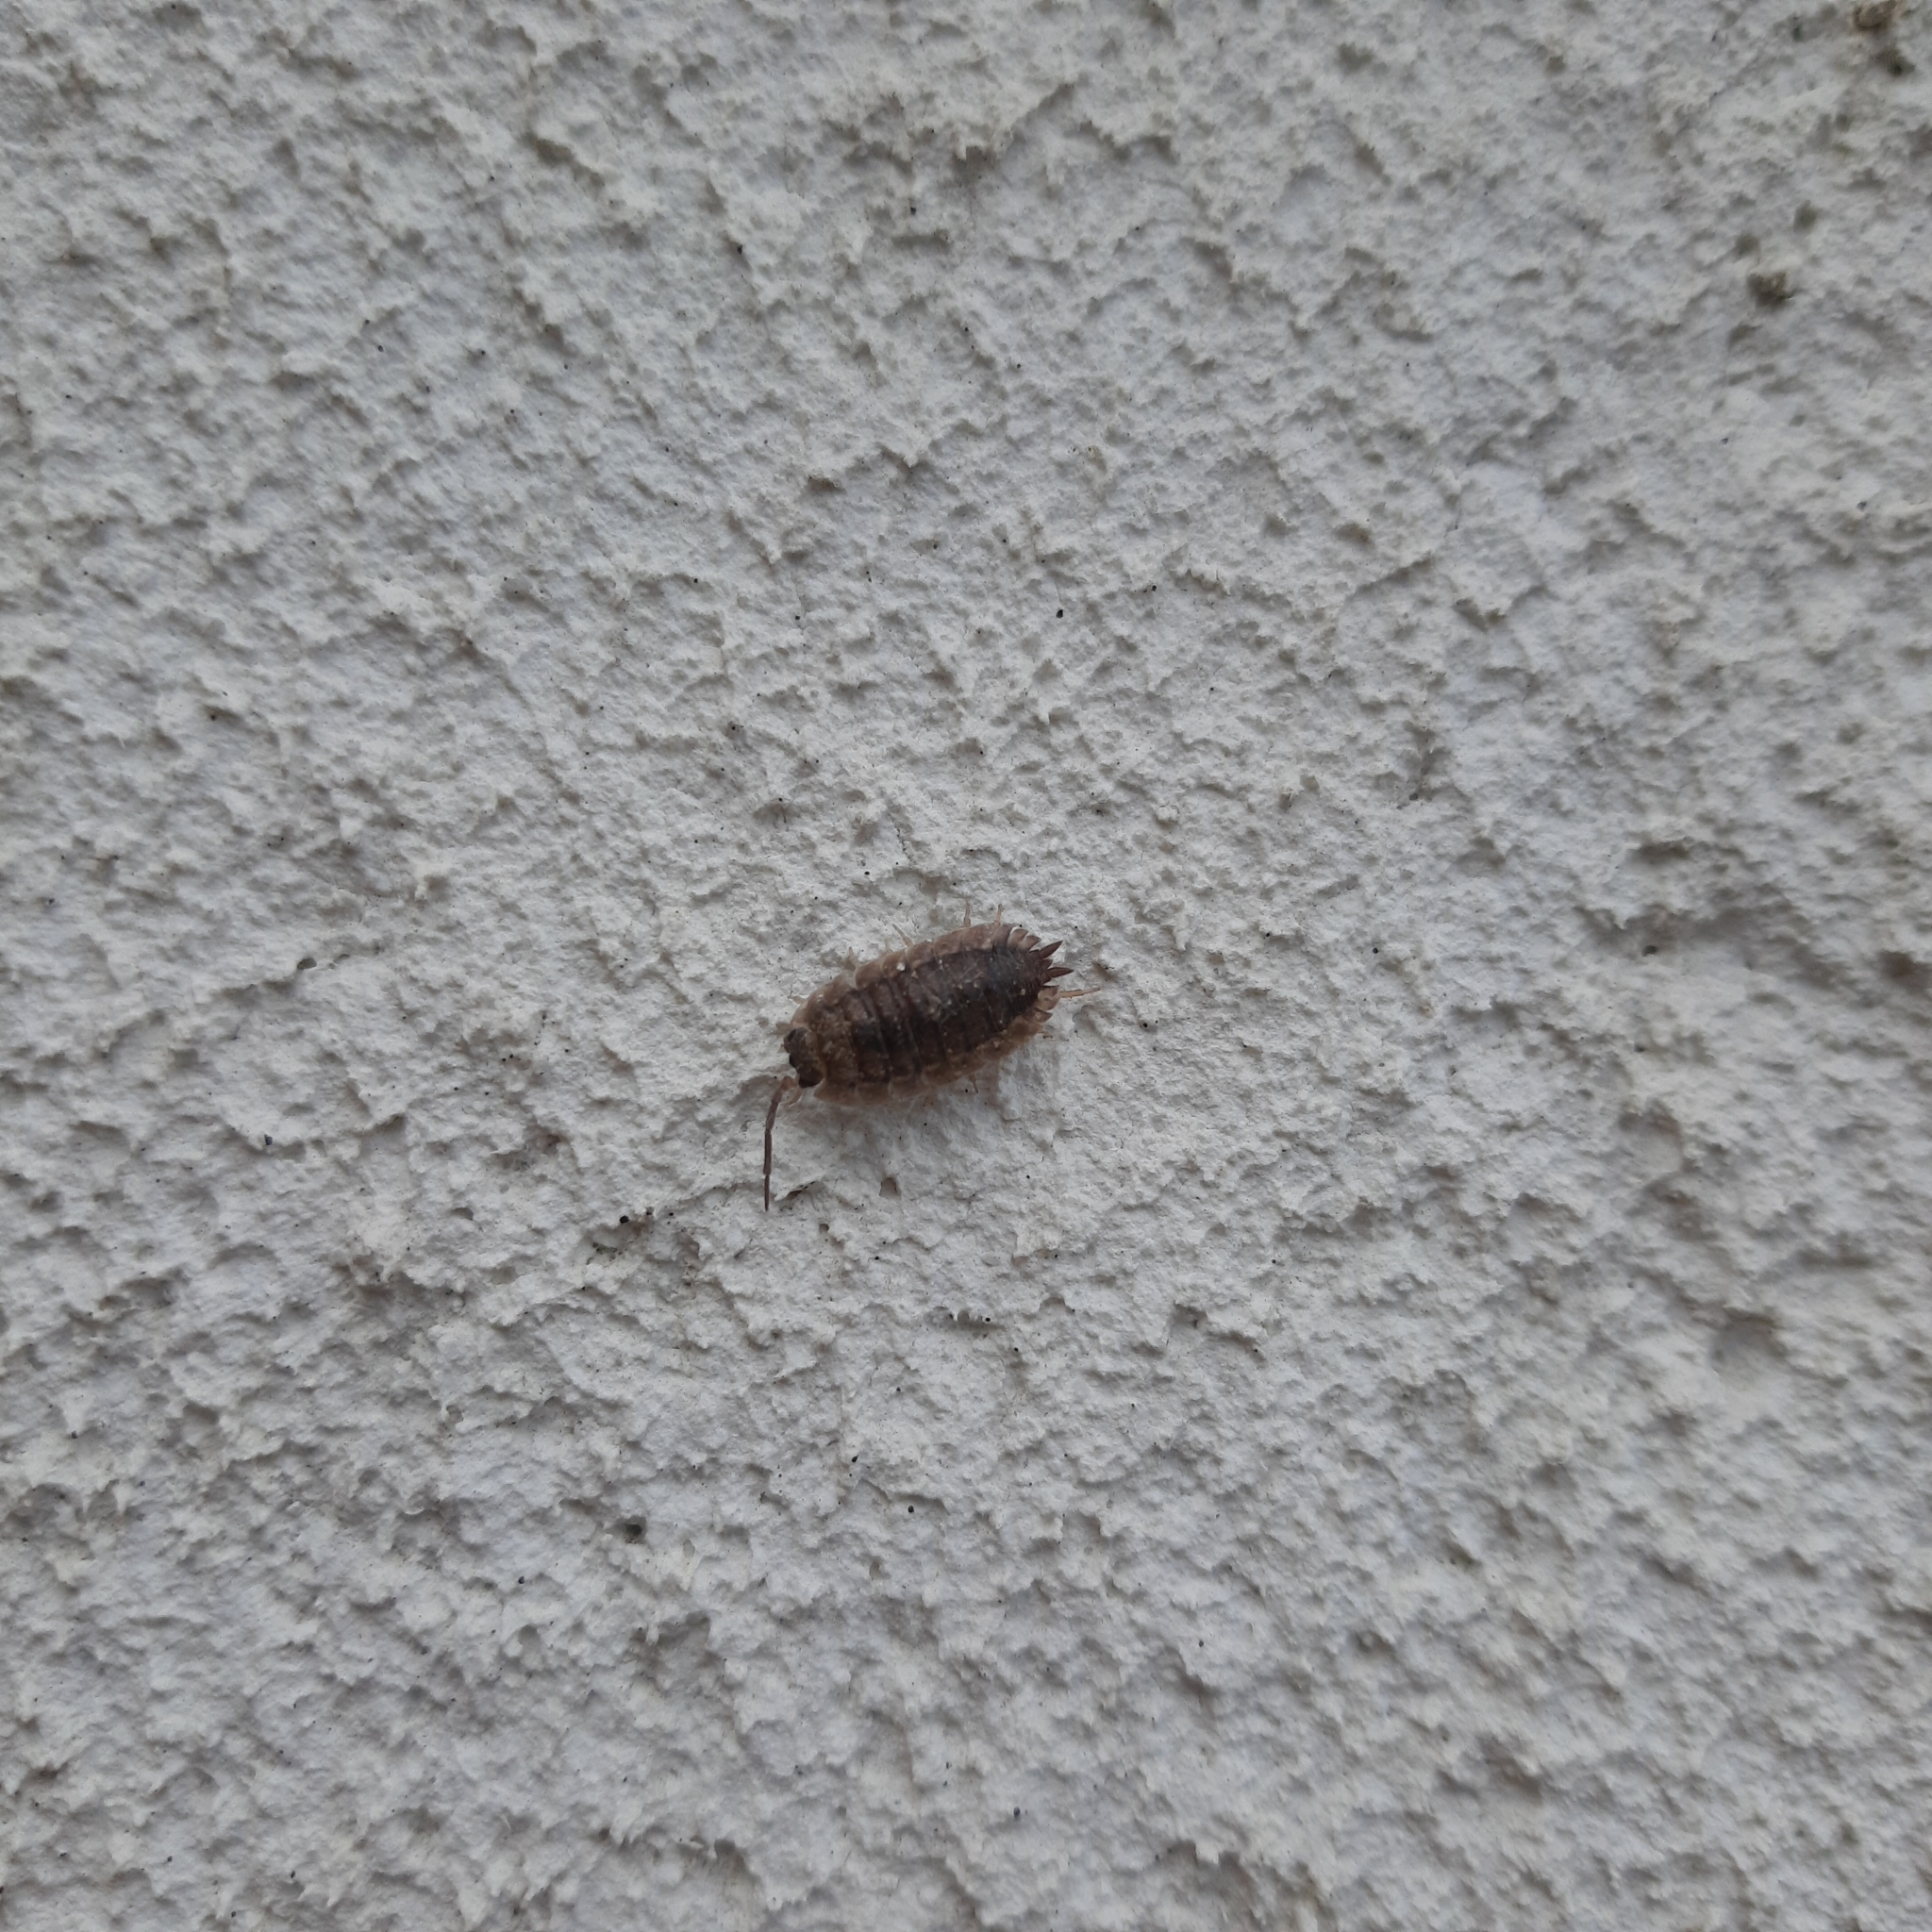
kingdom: Animalia
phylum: Arthropoda
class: Malacostraca
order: Isopoda
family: Porcellionidae
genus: Porcellio
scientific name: Porcellio scaber
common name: Common rough woodlouse
